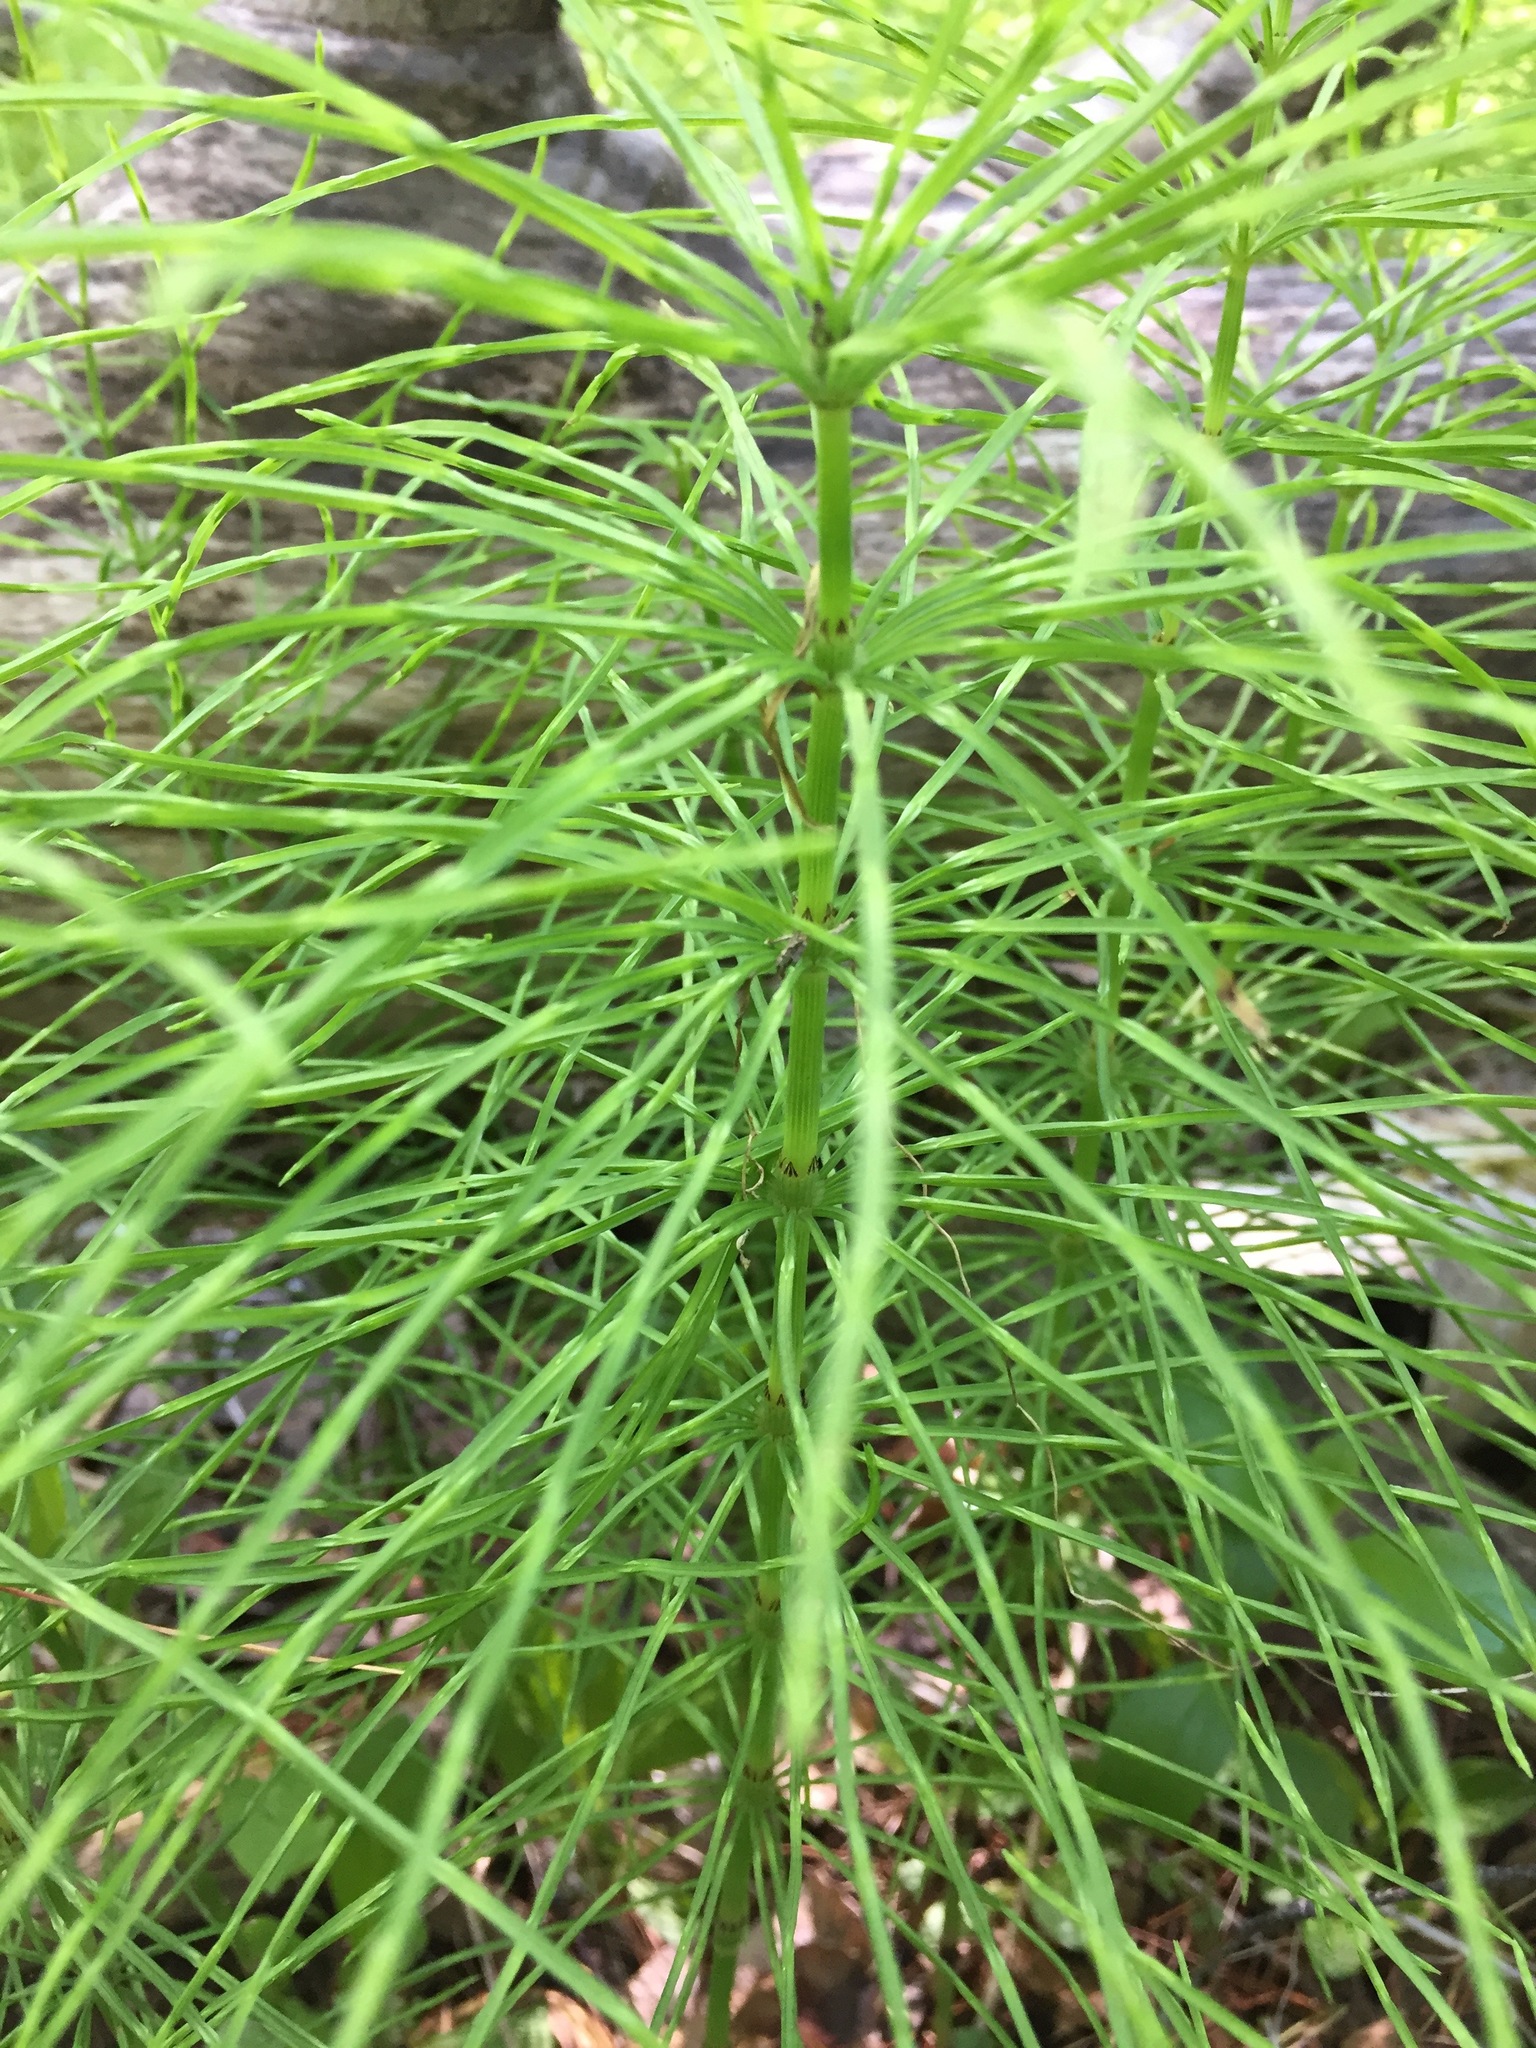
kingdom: Plantae
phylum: Tracheophyta
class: Polypodiopsida
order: Equisetales
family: Equisetaceae
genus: Equisetum
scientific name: Equisetum arvense
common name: Field horsetail
